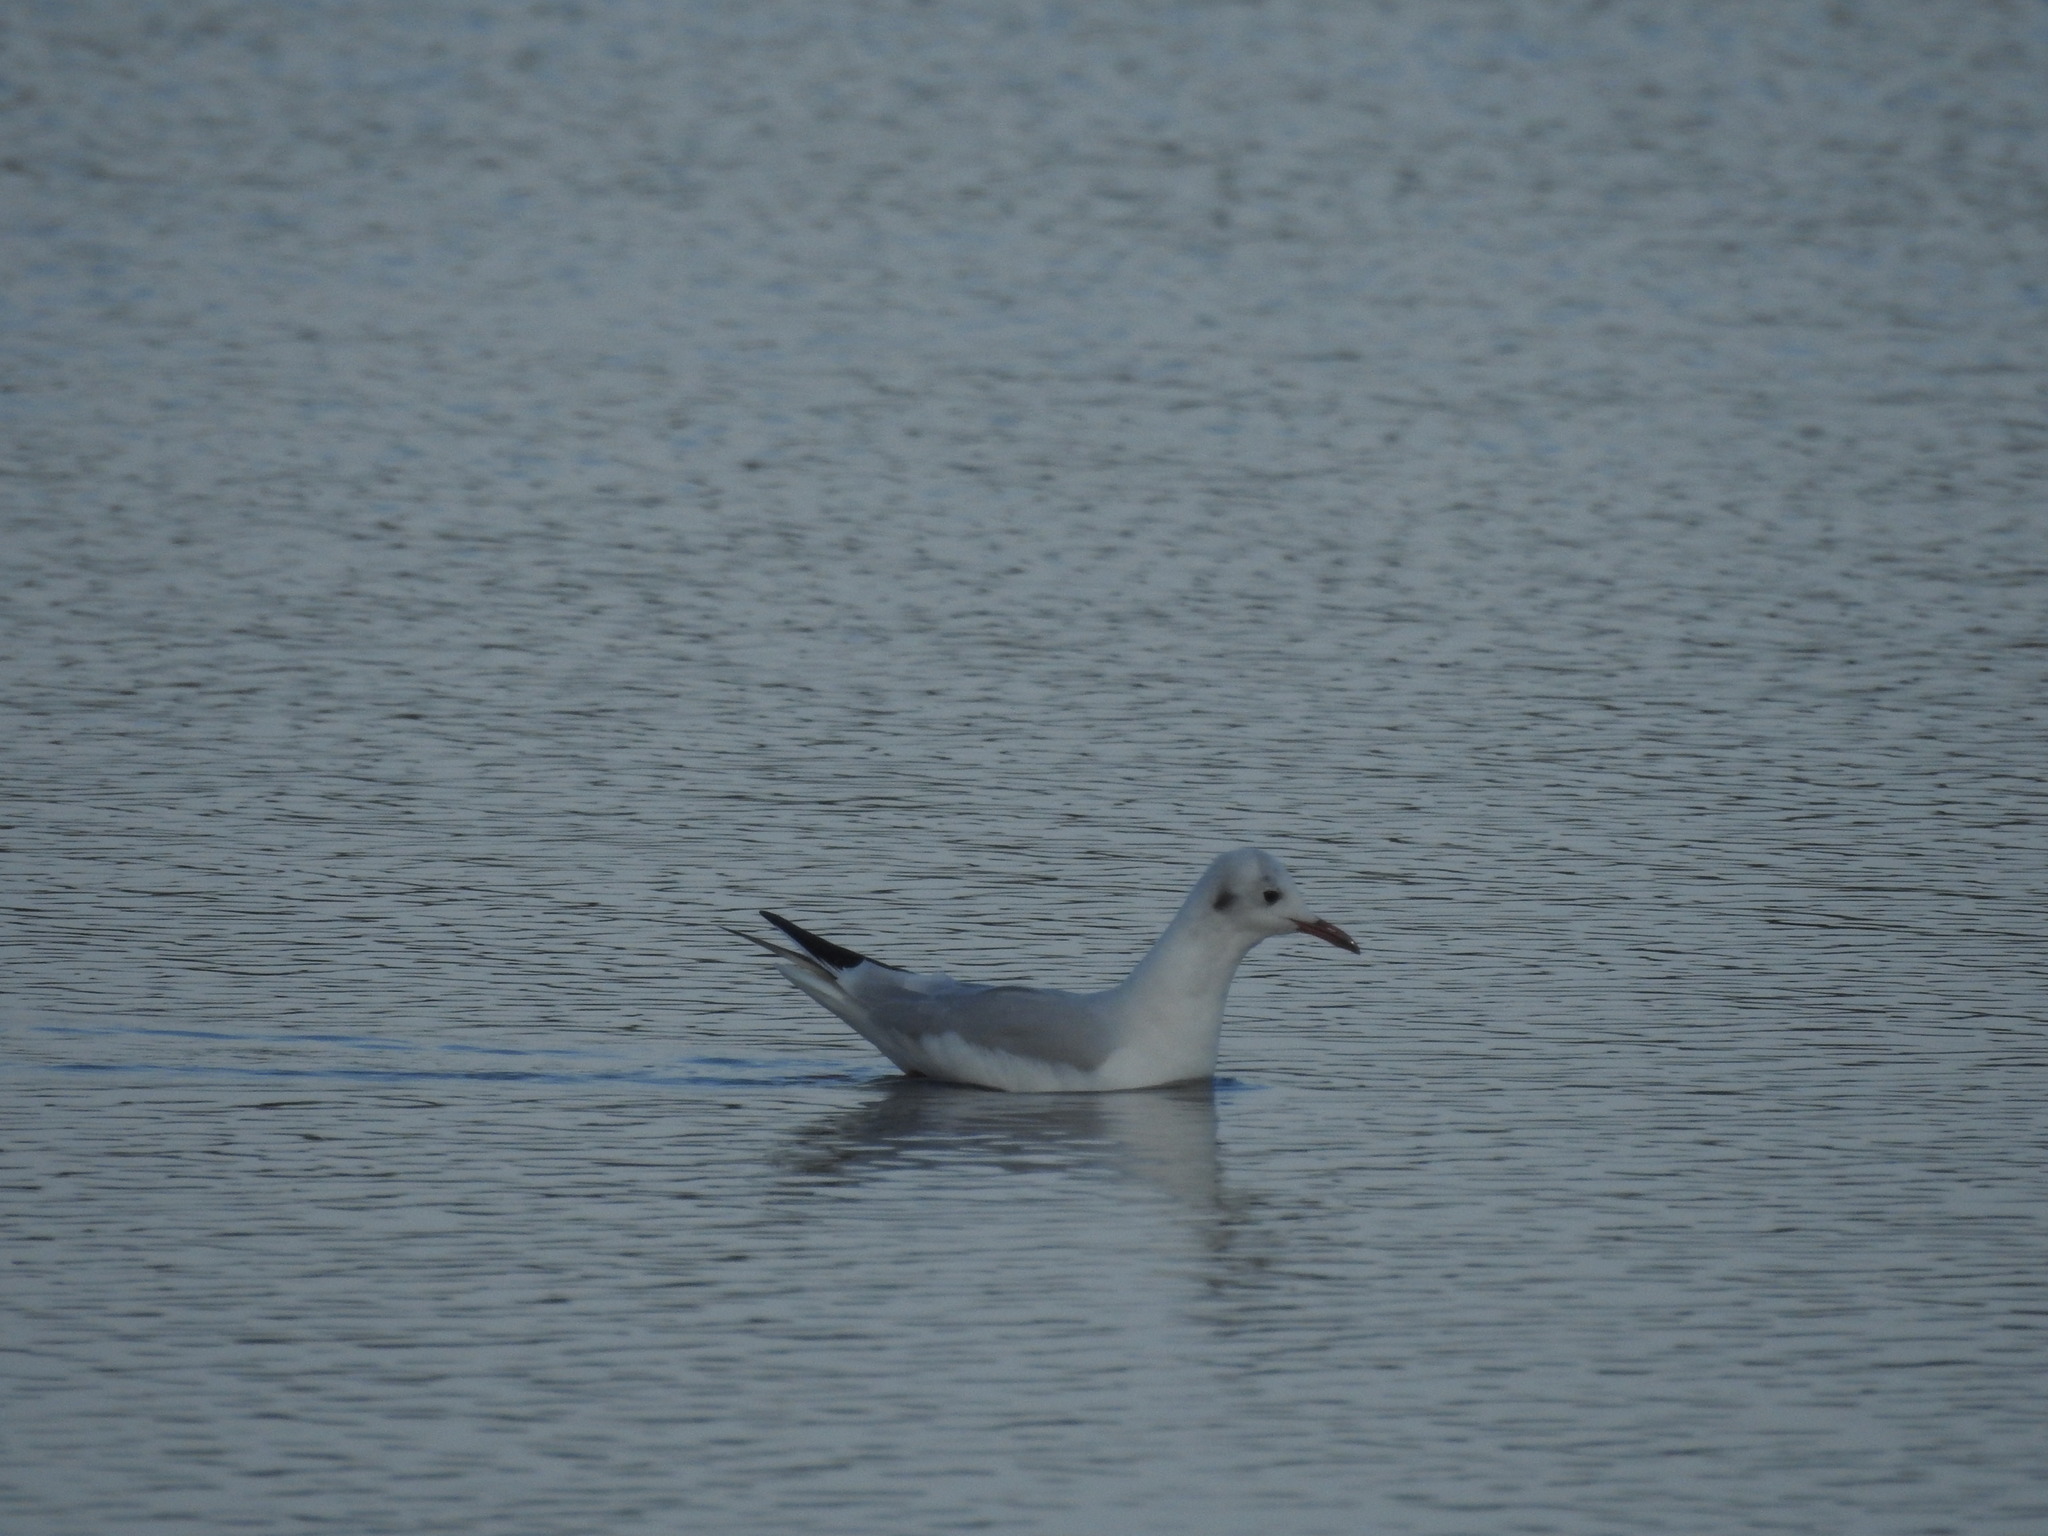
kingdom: Animalia
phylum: Chordata
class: Aves
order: Charadriiformes
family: Laridae
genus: Chroicocephalus
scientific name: Chroicocephalus ridibundus
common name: Black-headed gull
